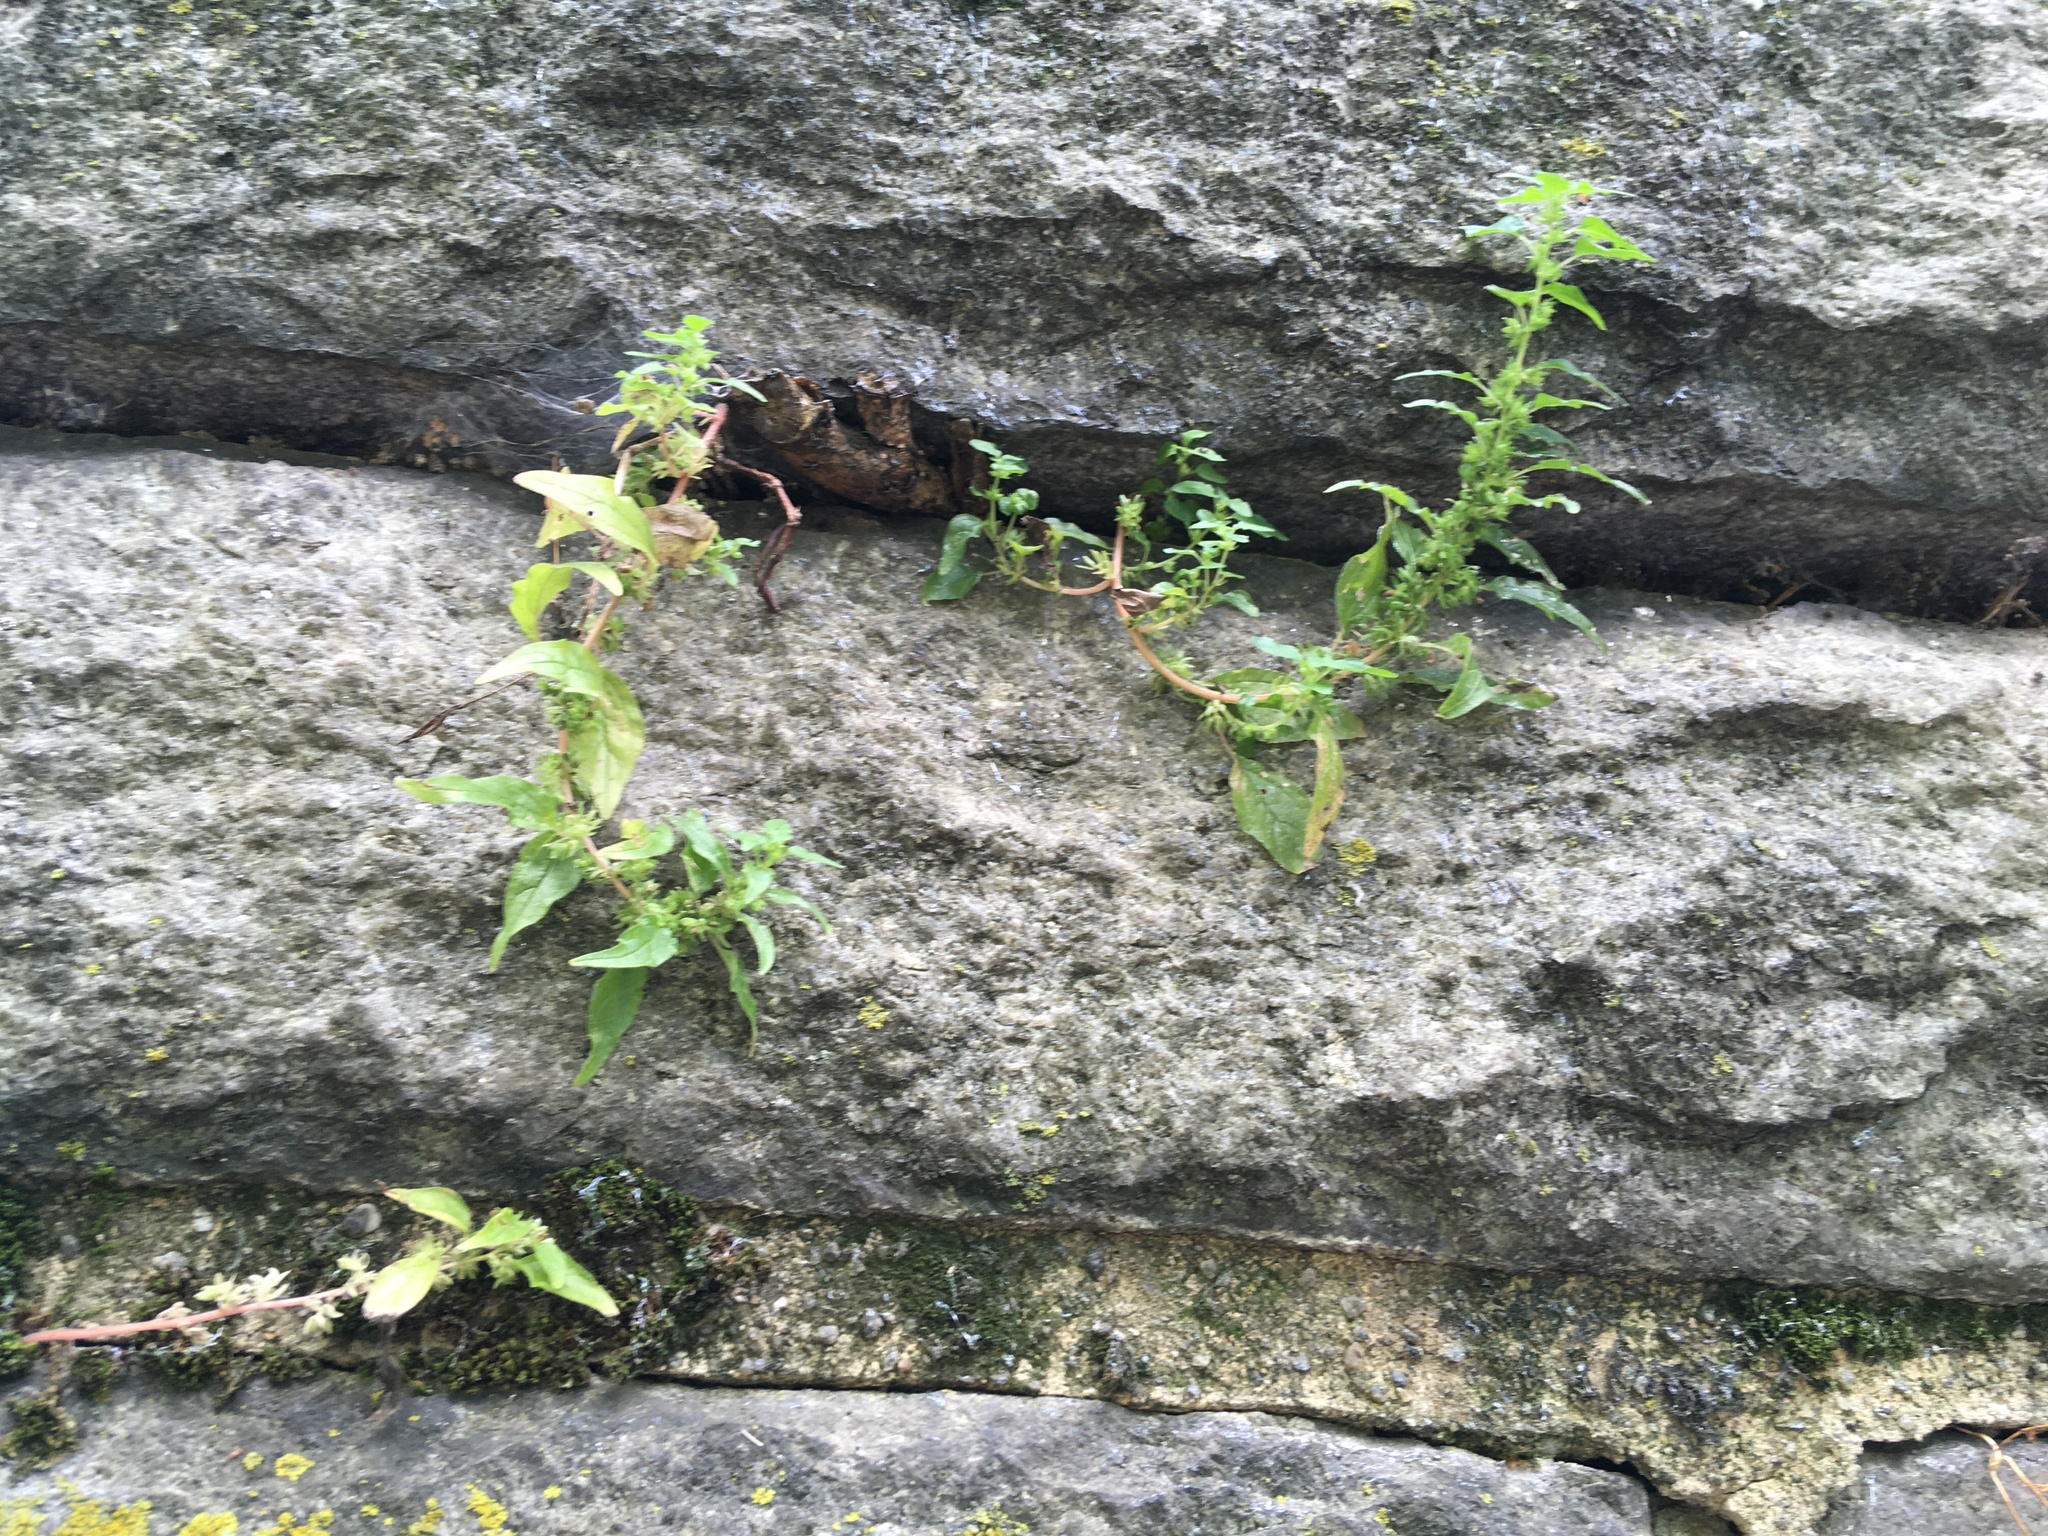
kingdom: Plantae
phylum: Tracheophyta
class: Magnoliopsida
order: Rosales
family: Urticaceae
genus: Parietaria
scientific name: Parietaria pensylvanica
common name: Pennsylvania pellitory
